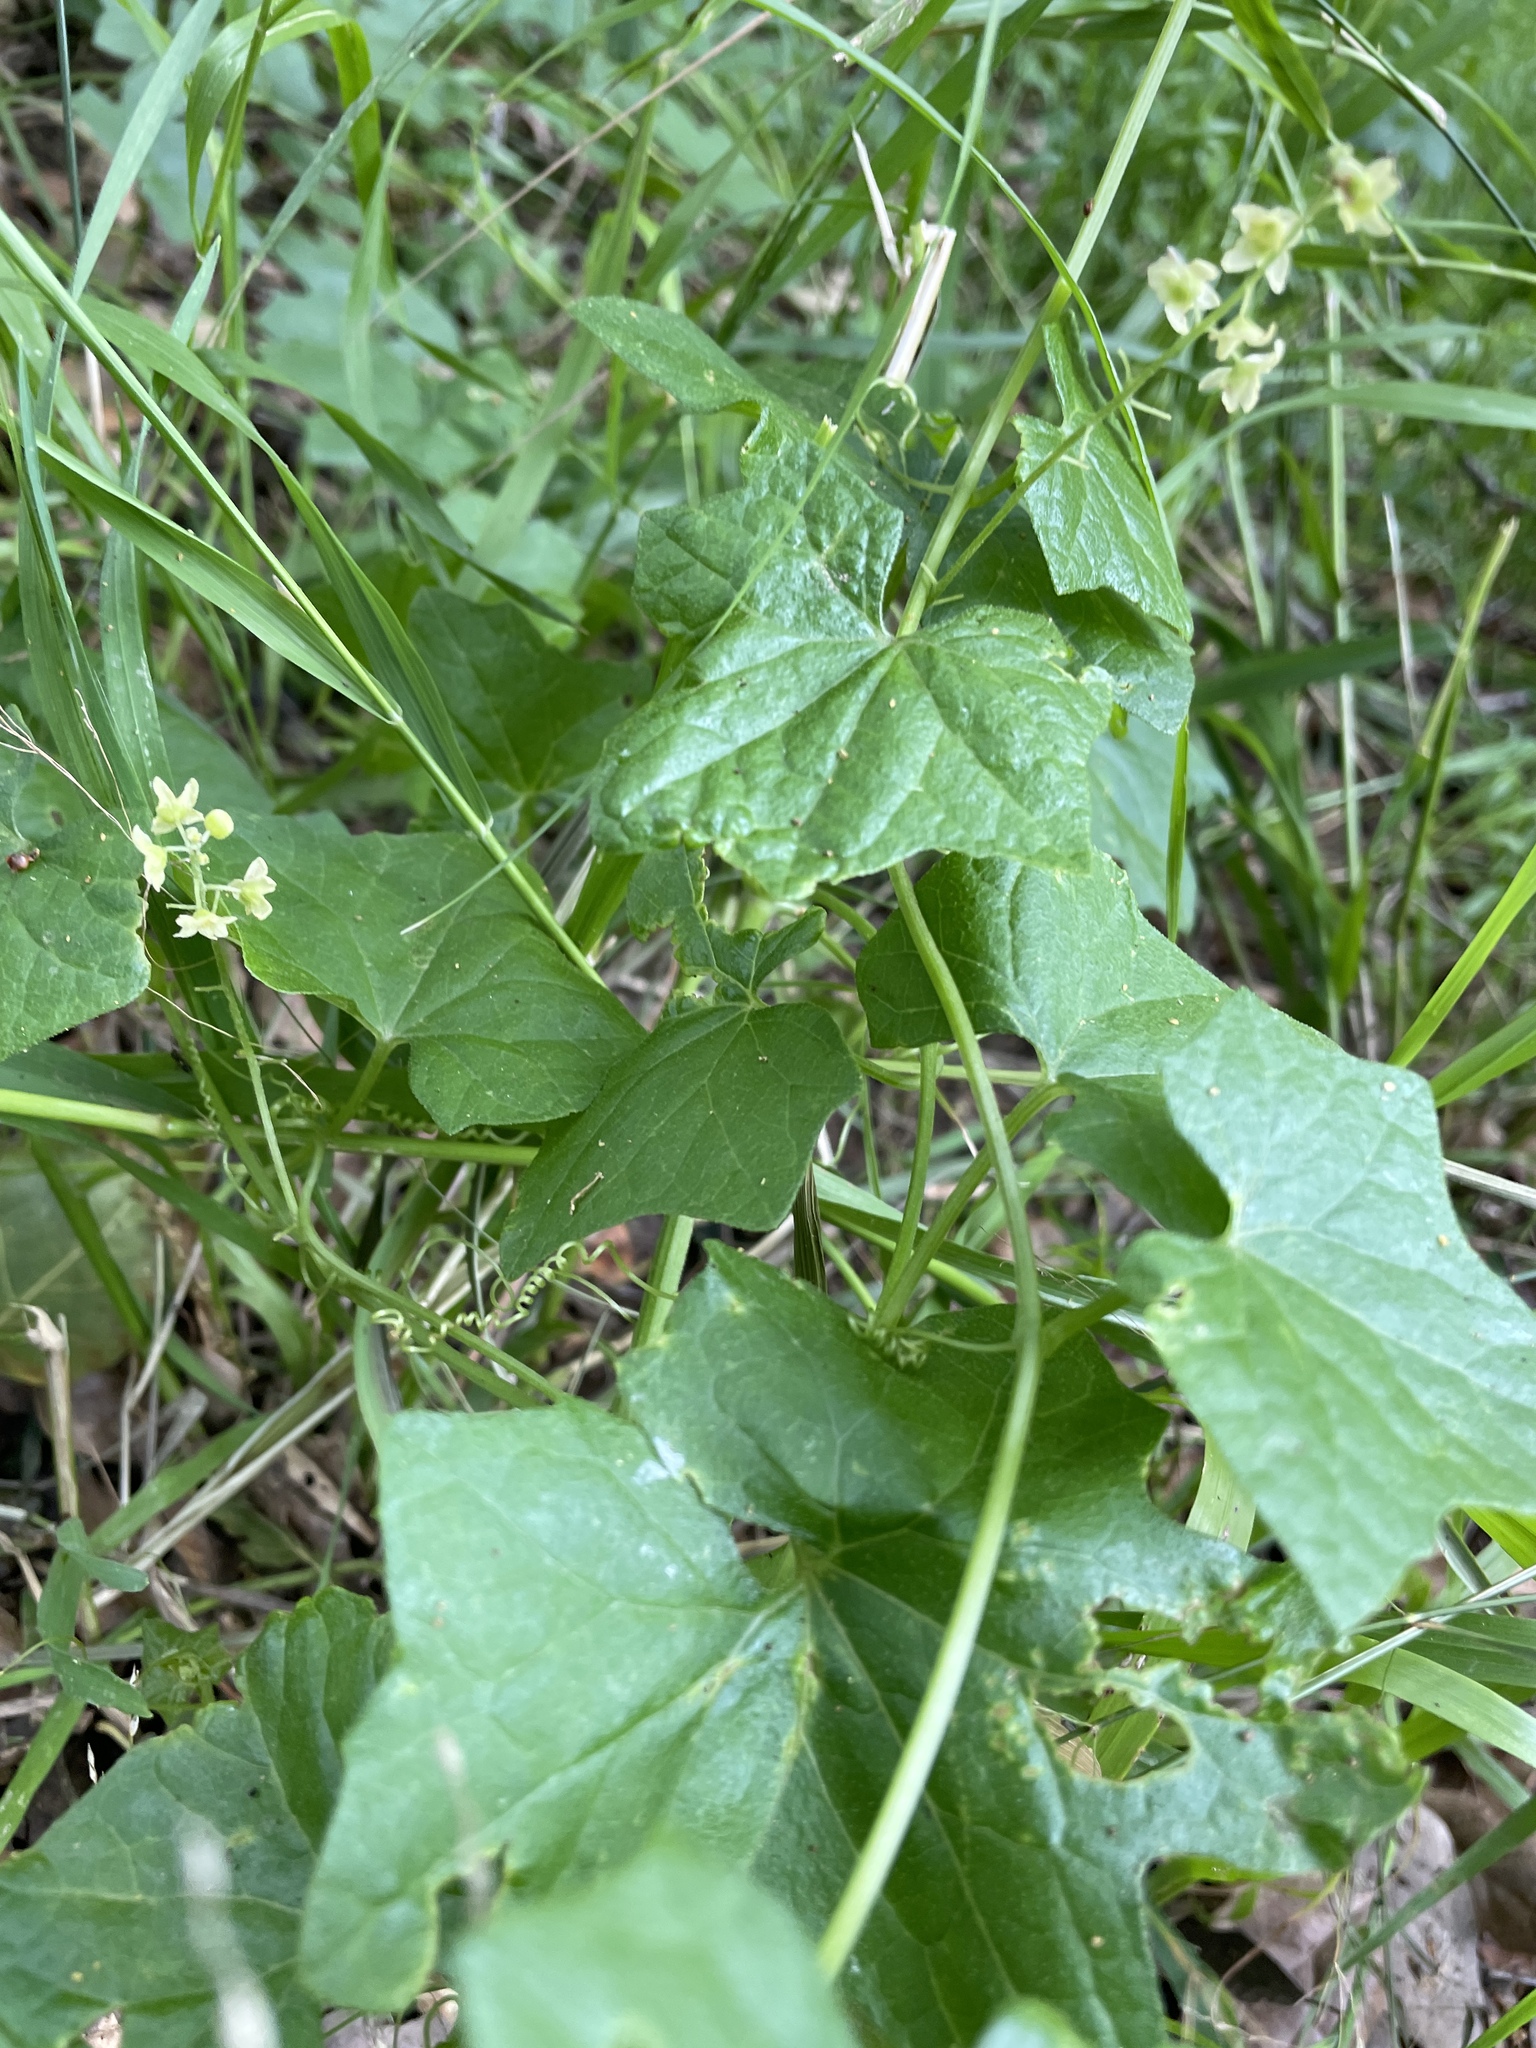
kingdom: Plantae
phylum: Tracheophyta
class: Magnoliopsida
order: Cucurbitales
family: Cucurbitaceae
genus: Marah
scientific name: Marah fabacea
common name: California manroot
